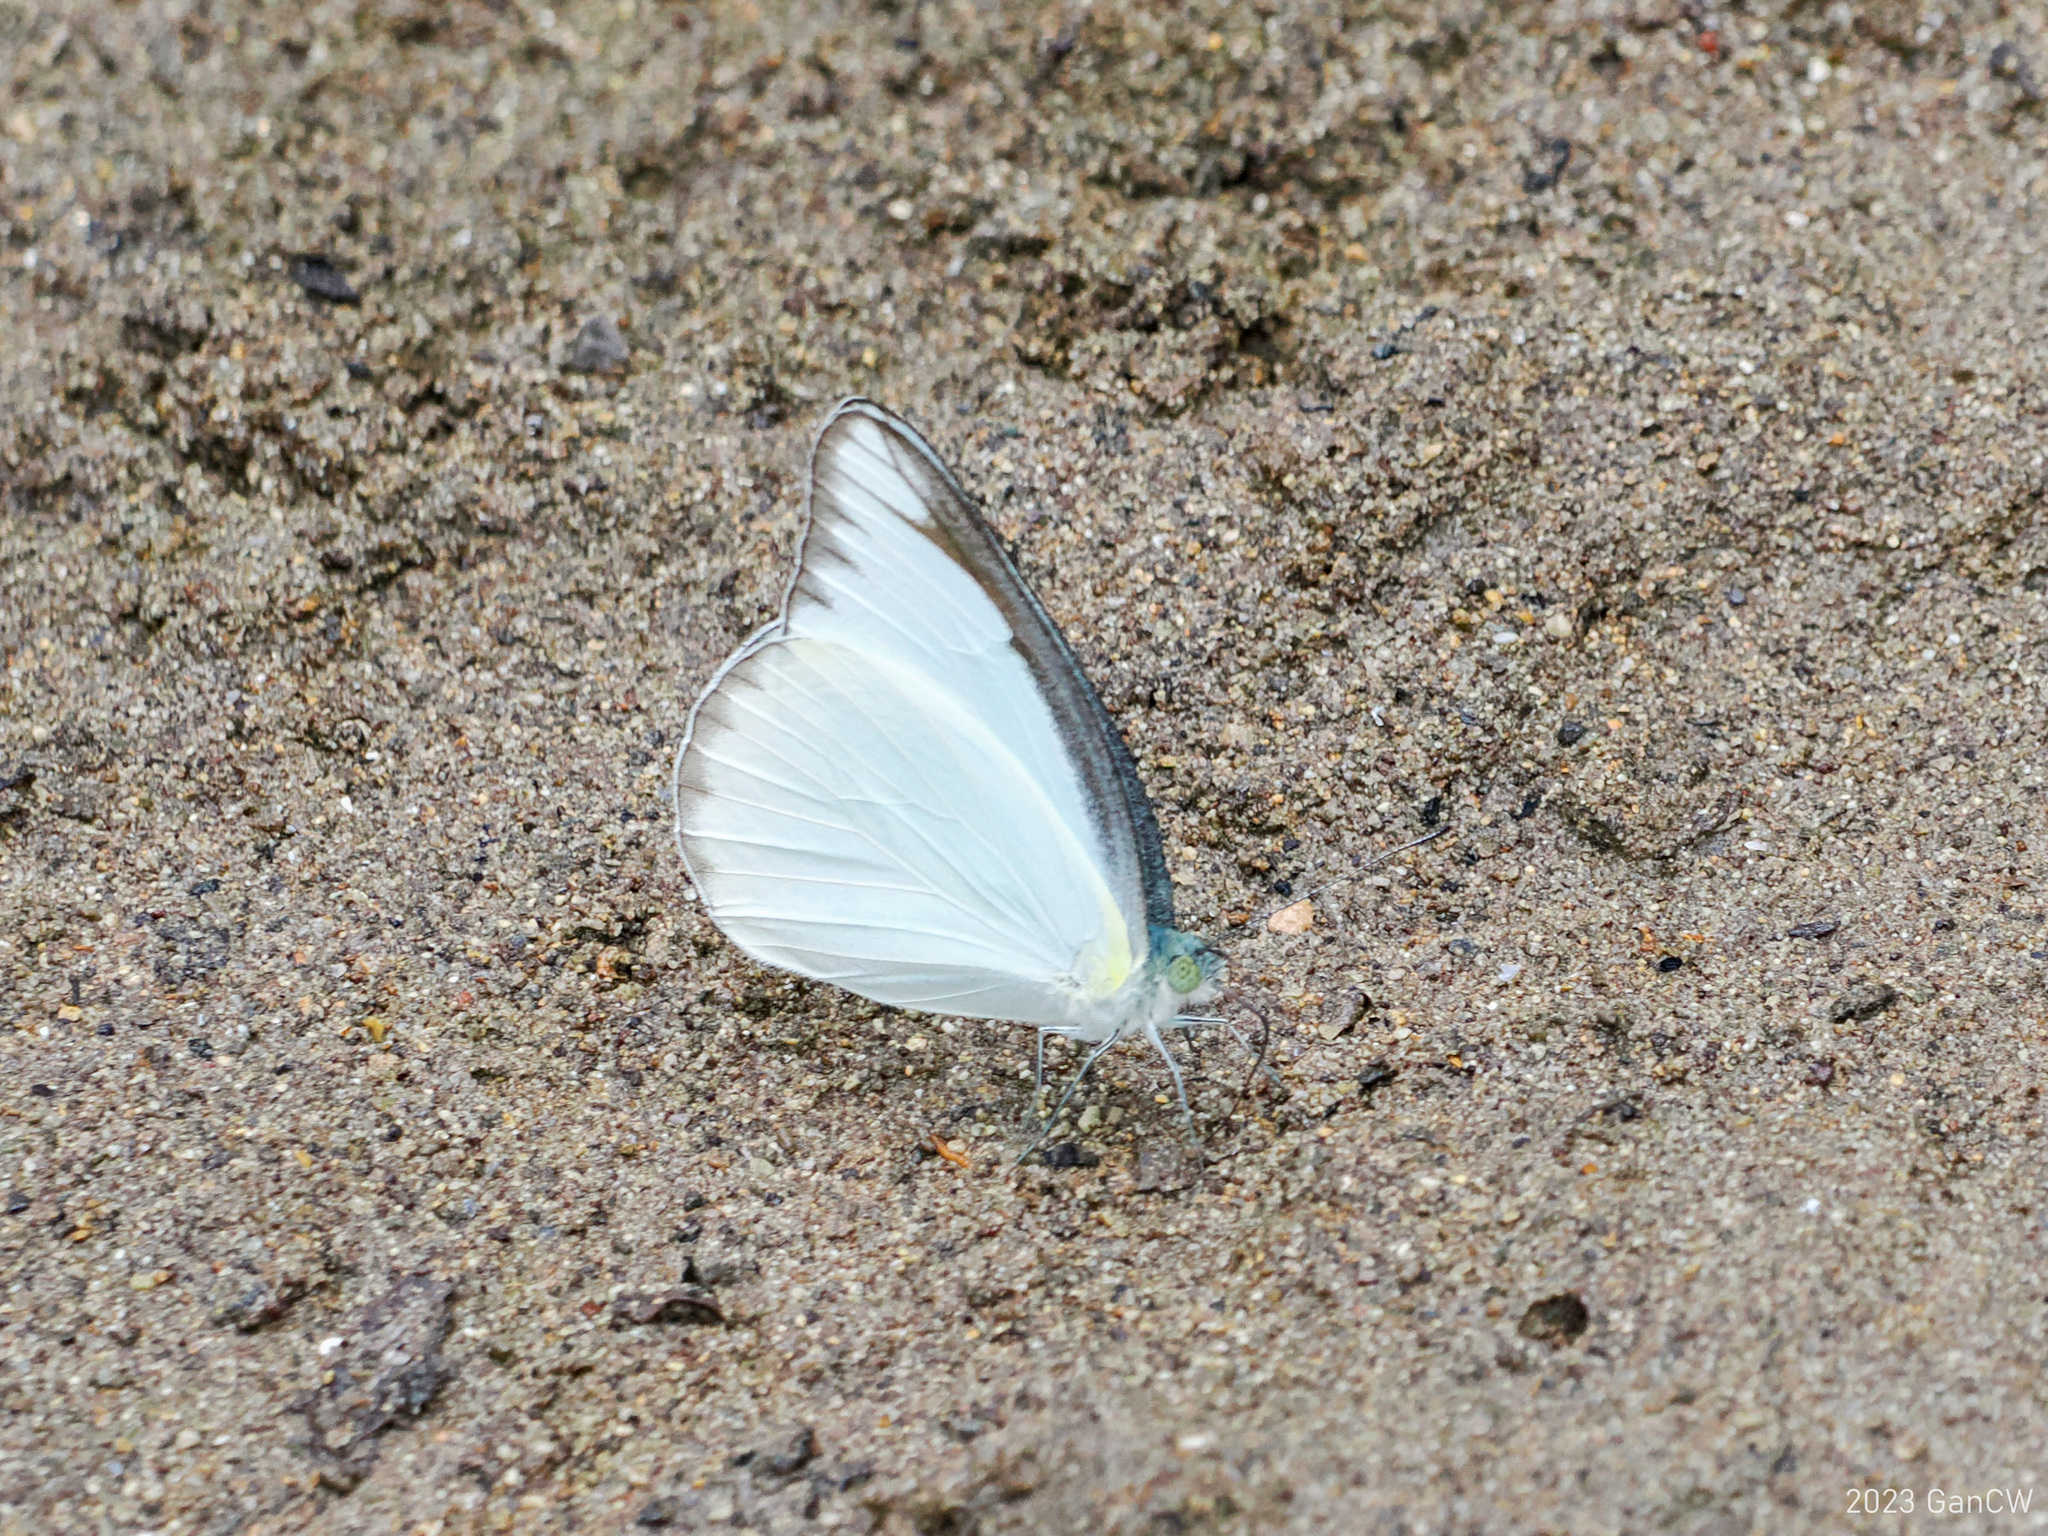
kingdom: Animalia
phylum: Arthropoda
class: Insecta
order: Lepidoptera
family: Pieridae
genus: Appias
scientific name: Appias lyncida
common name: Chocolate albatross
